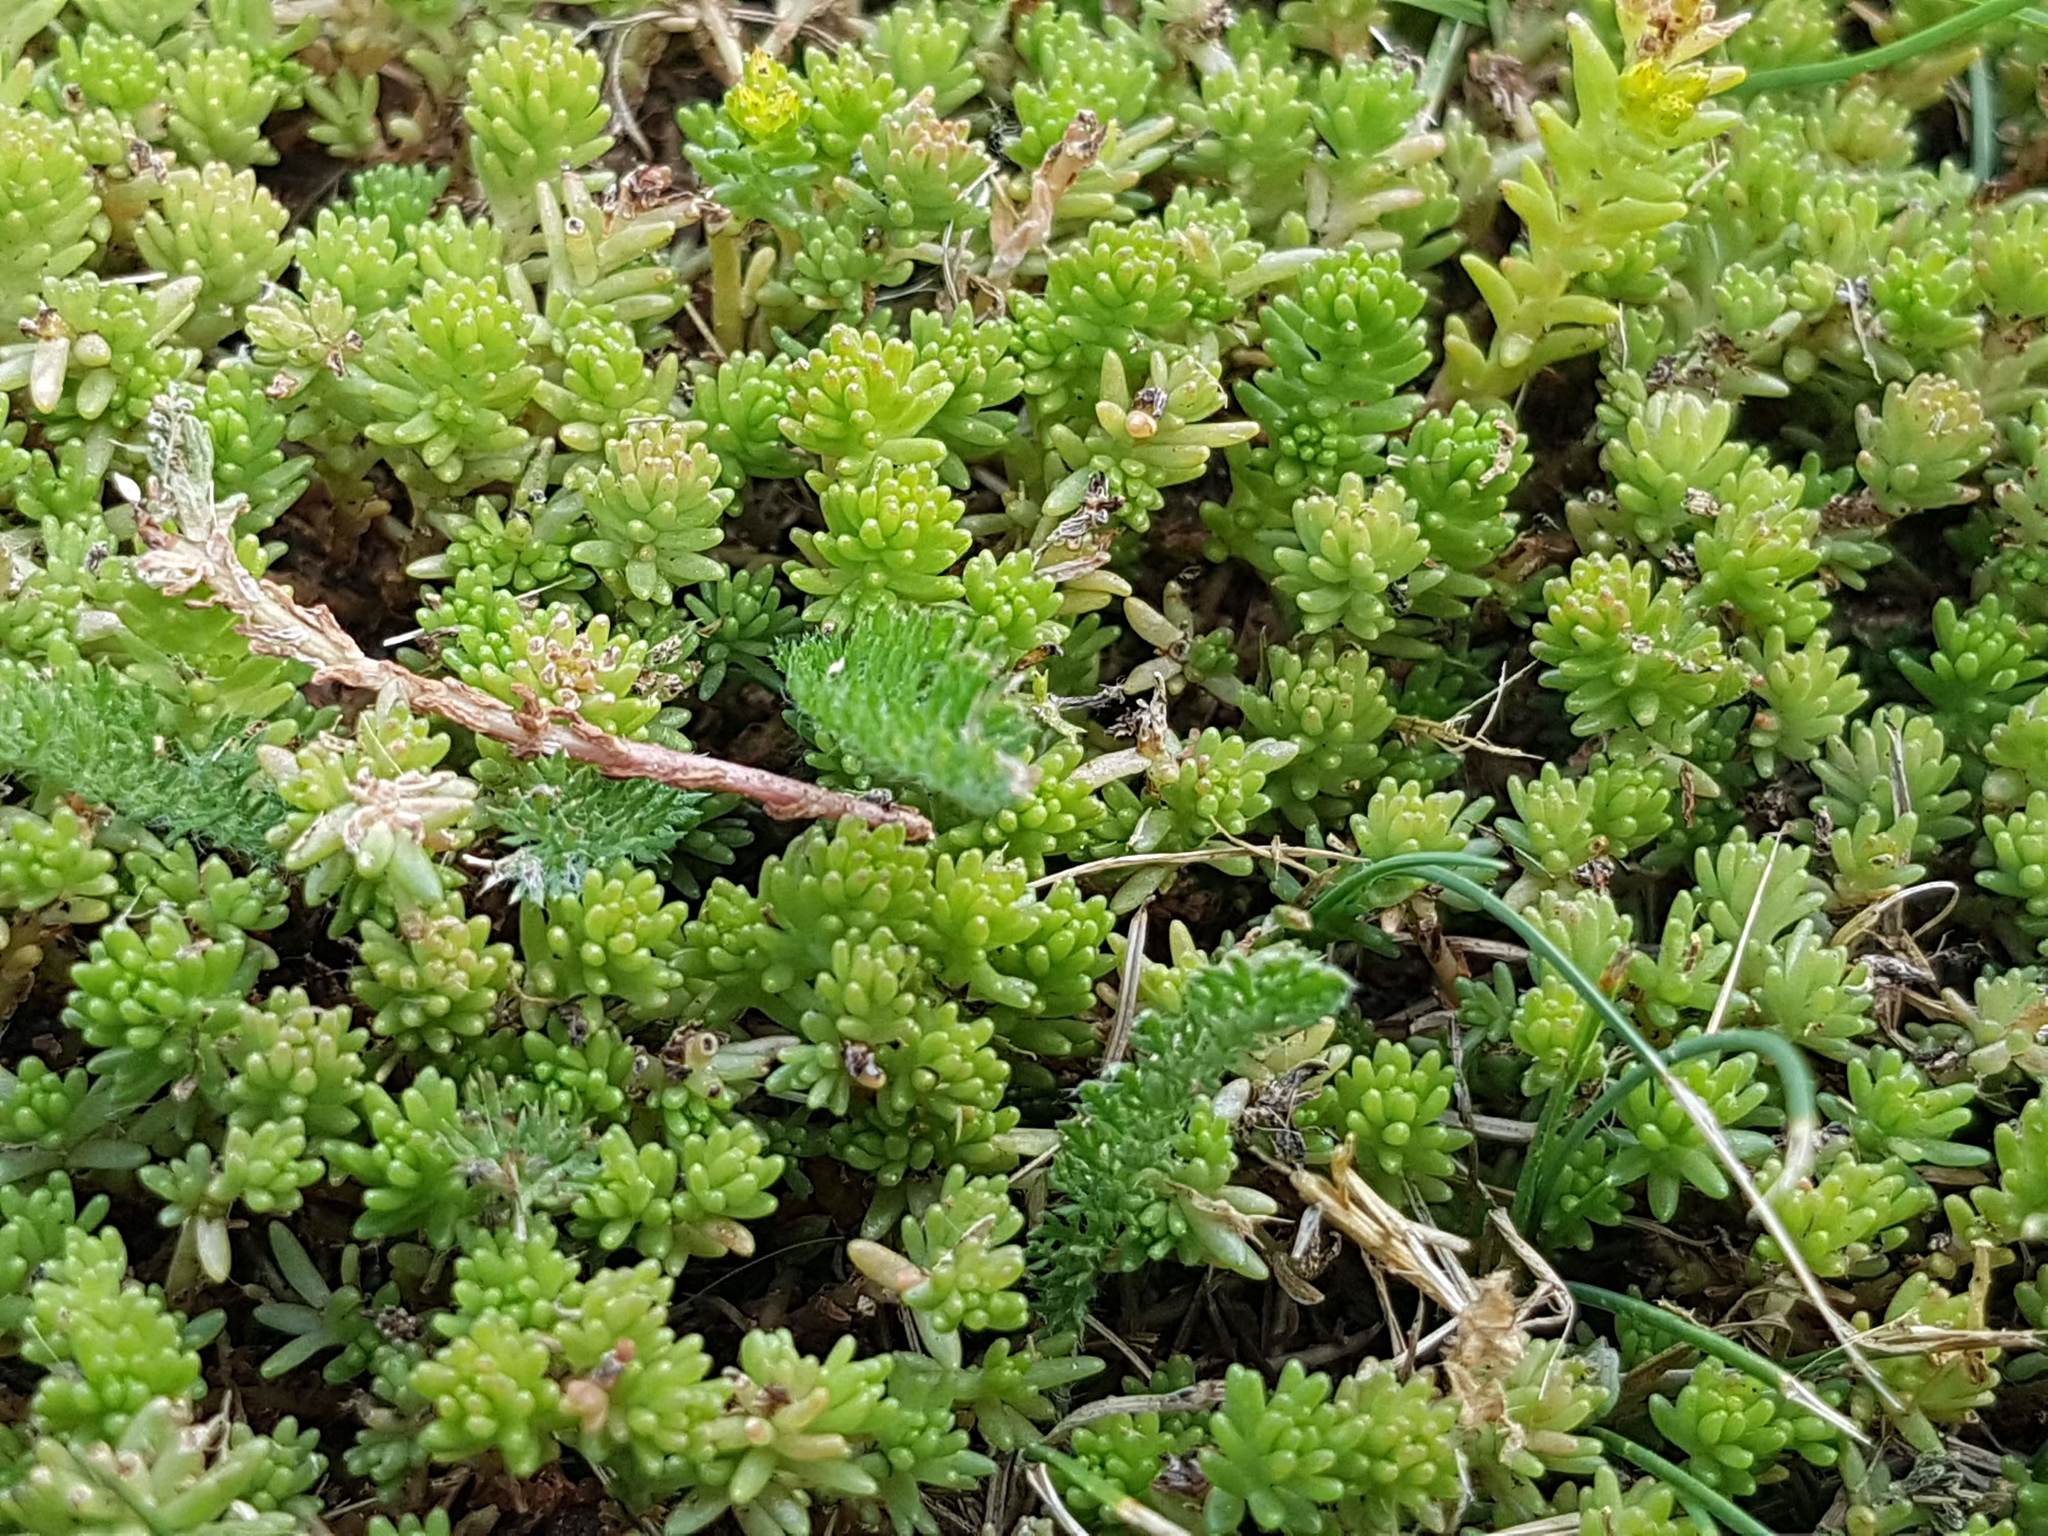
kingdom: Plantae
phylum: Tracheophyta
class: Magnoliopsida
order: Saxifragales
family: Crassulaceae
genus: Sedum
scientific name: Sedum sexangulare
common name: Tasteless stonecrop
